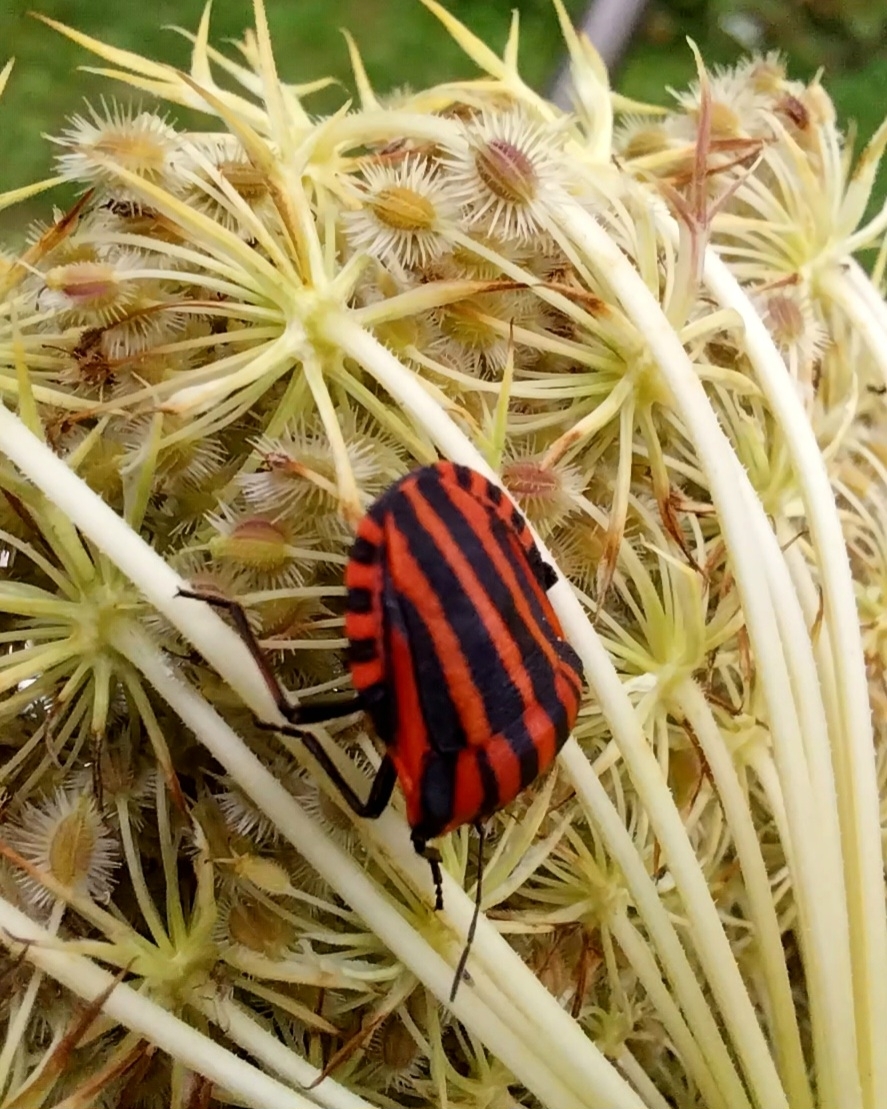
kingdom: Animalia
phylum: Arthropoda
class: Insecta
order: Hemiptera
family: Pentatomidae
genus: Graphosoma
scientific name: Graphosoma italicum
